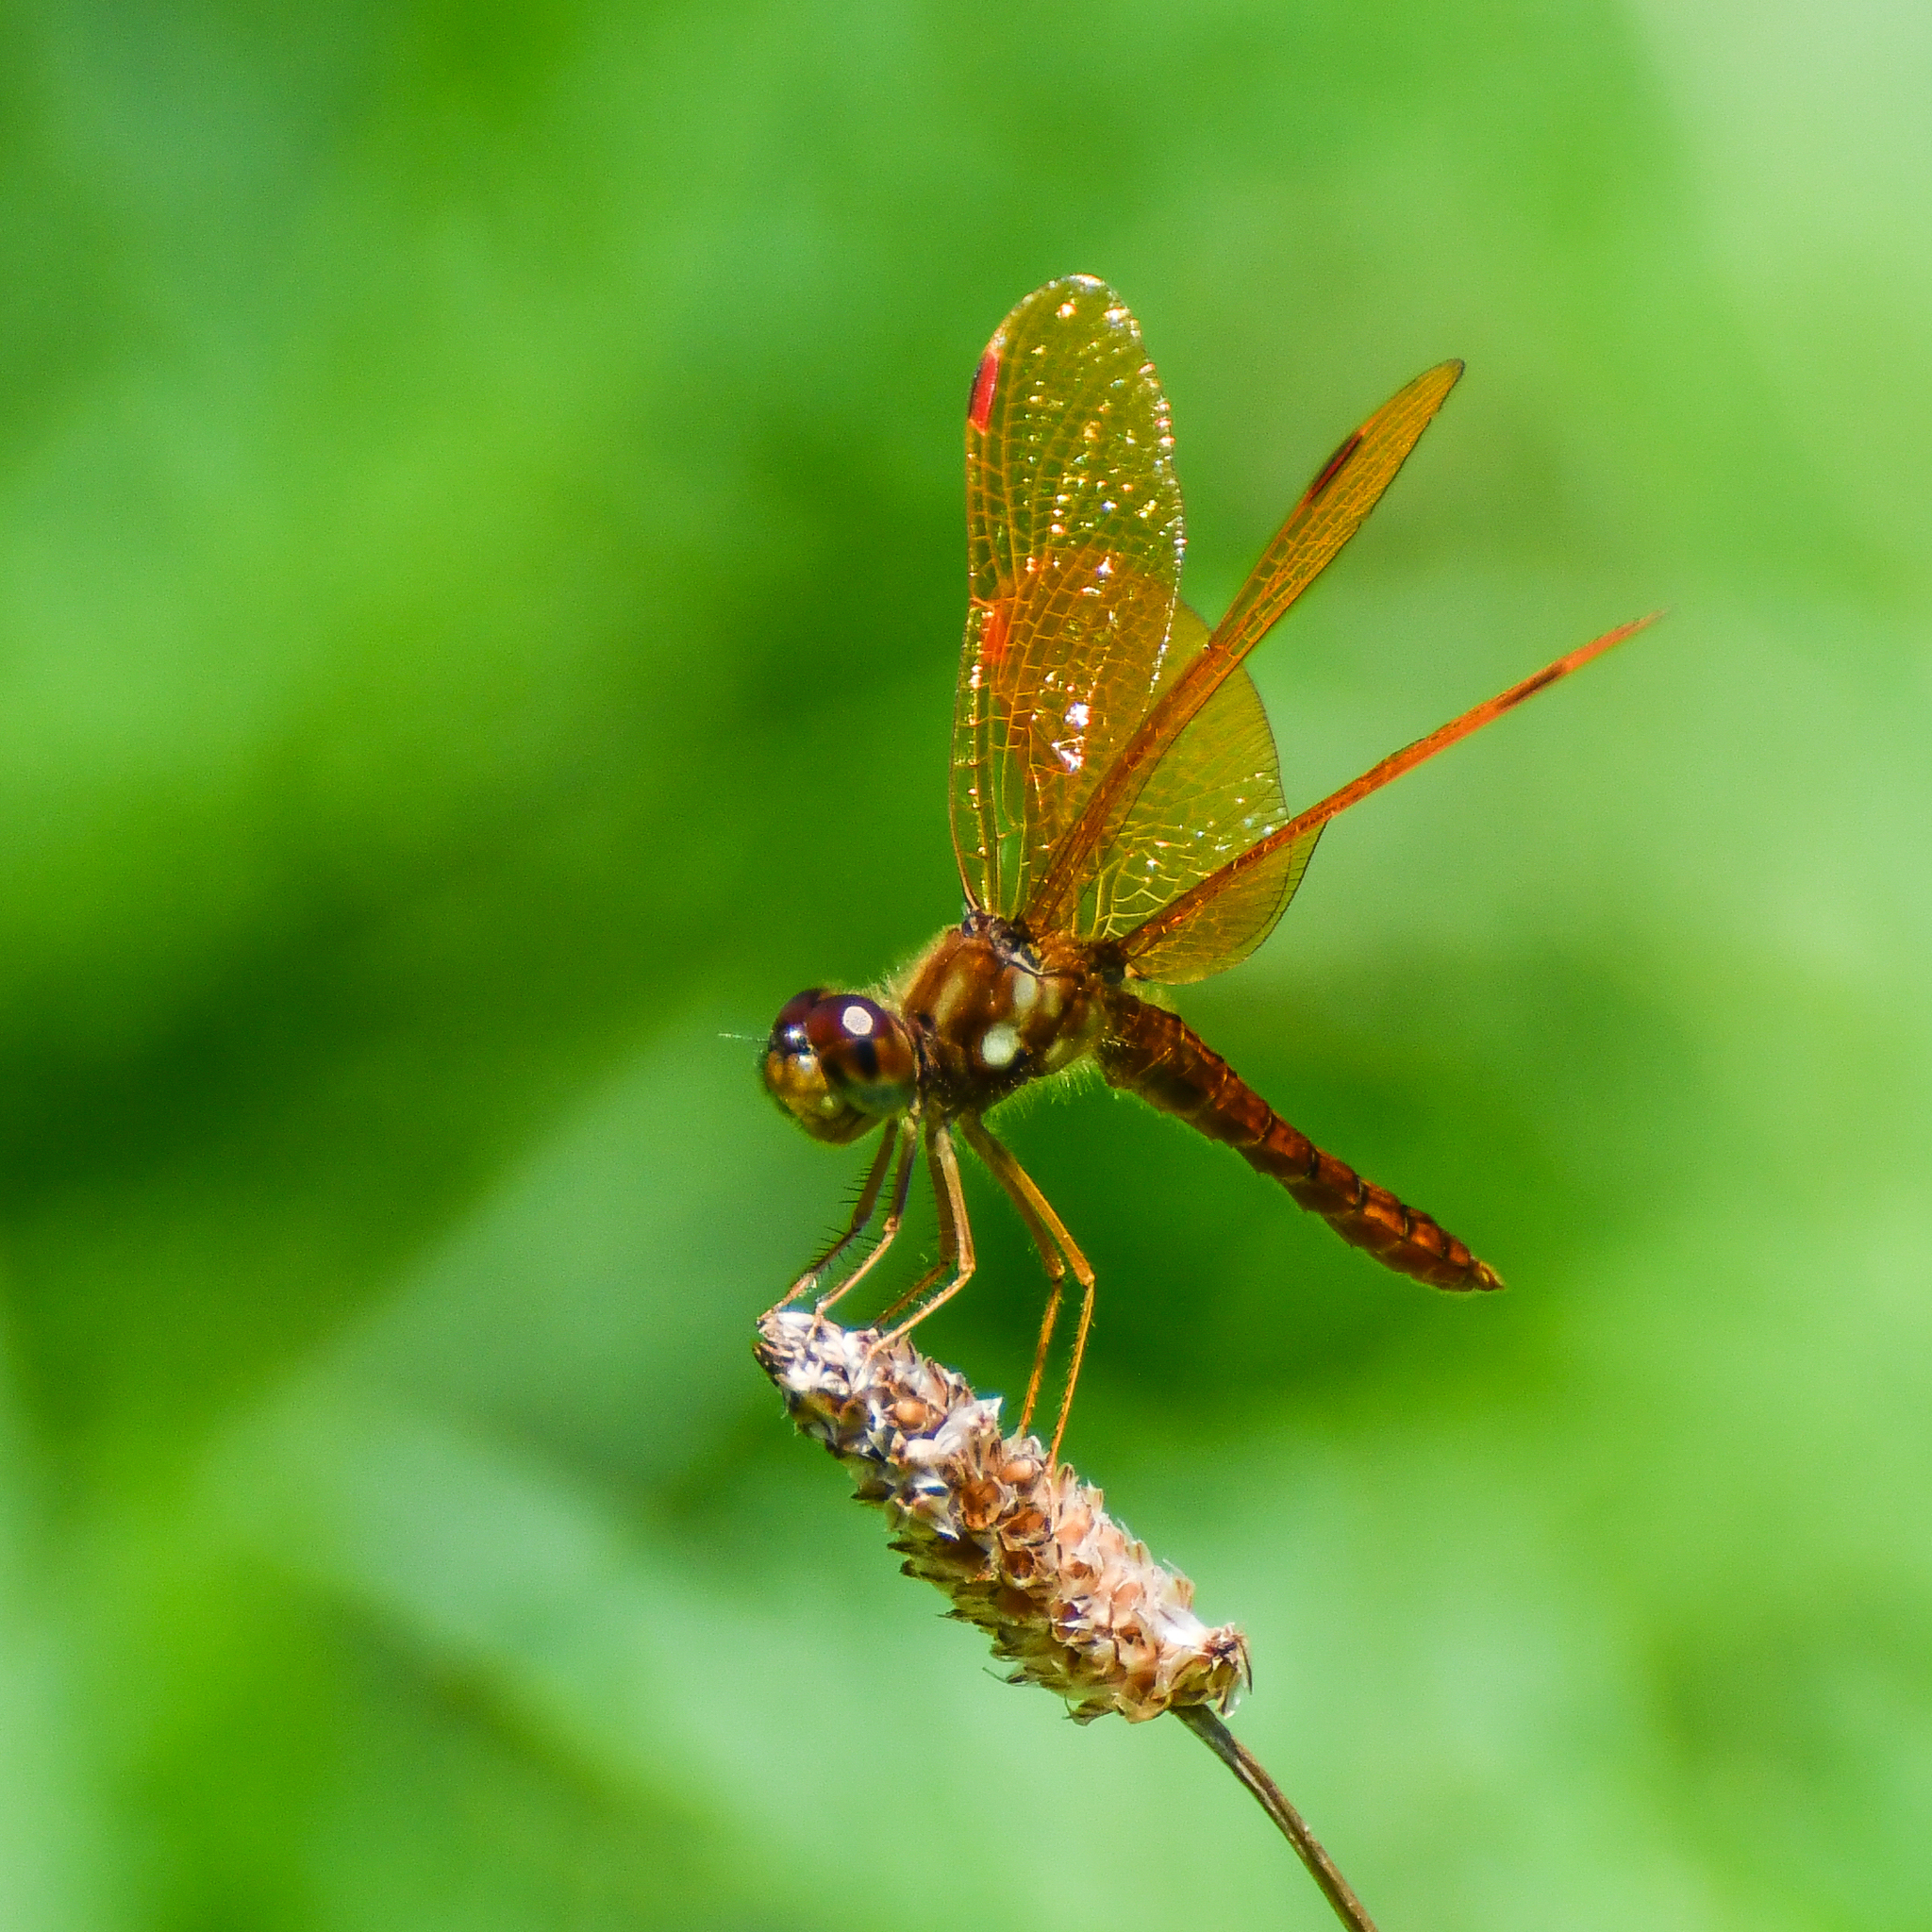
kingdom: Animalia
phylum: Arthropoda
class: Insecta
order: Odonata
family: Libellulidae
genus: Perithemis
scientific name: Perithemis tenera
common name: Eastern amberwing
